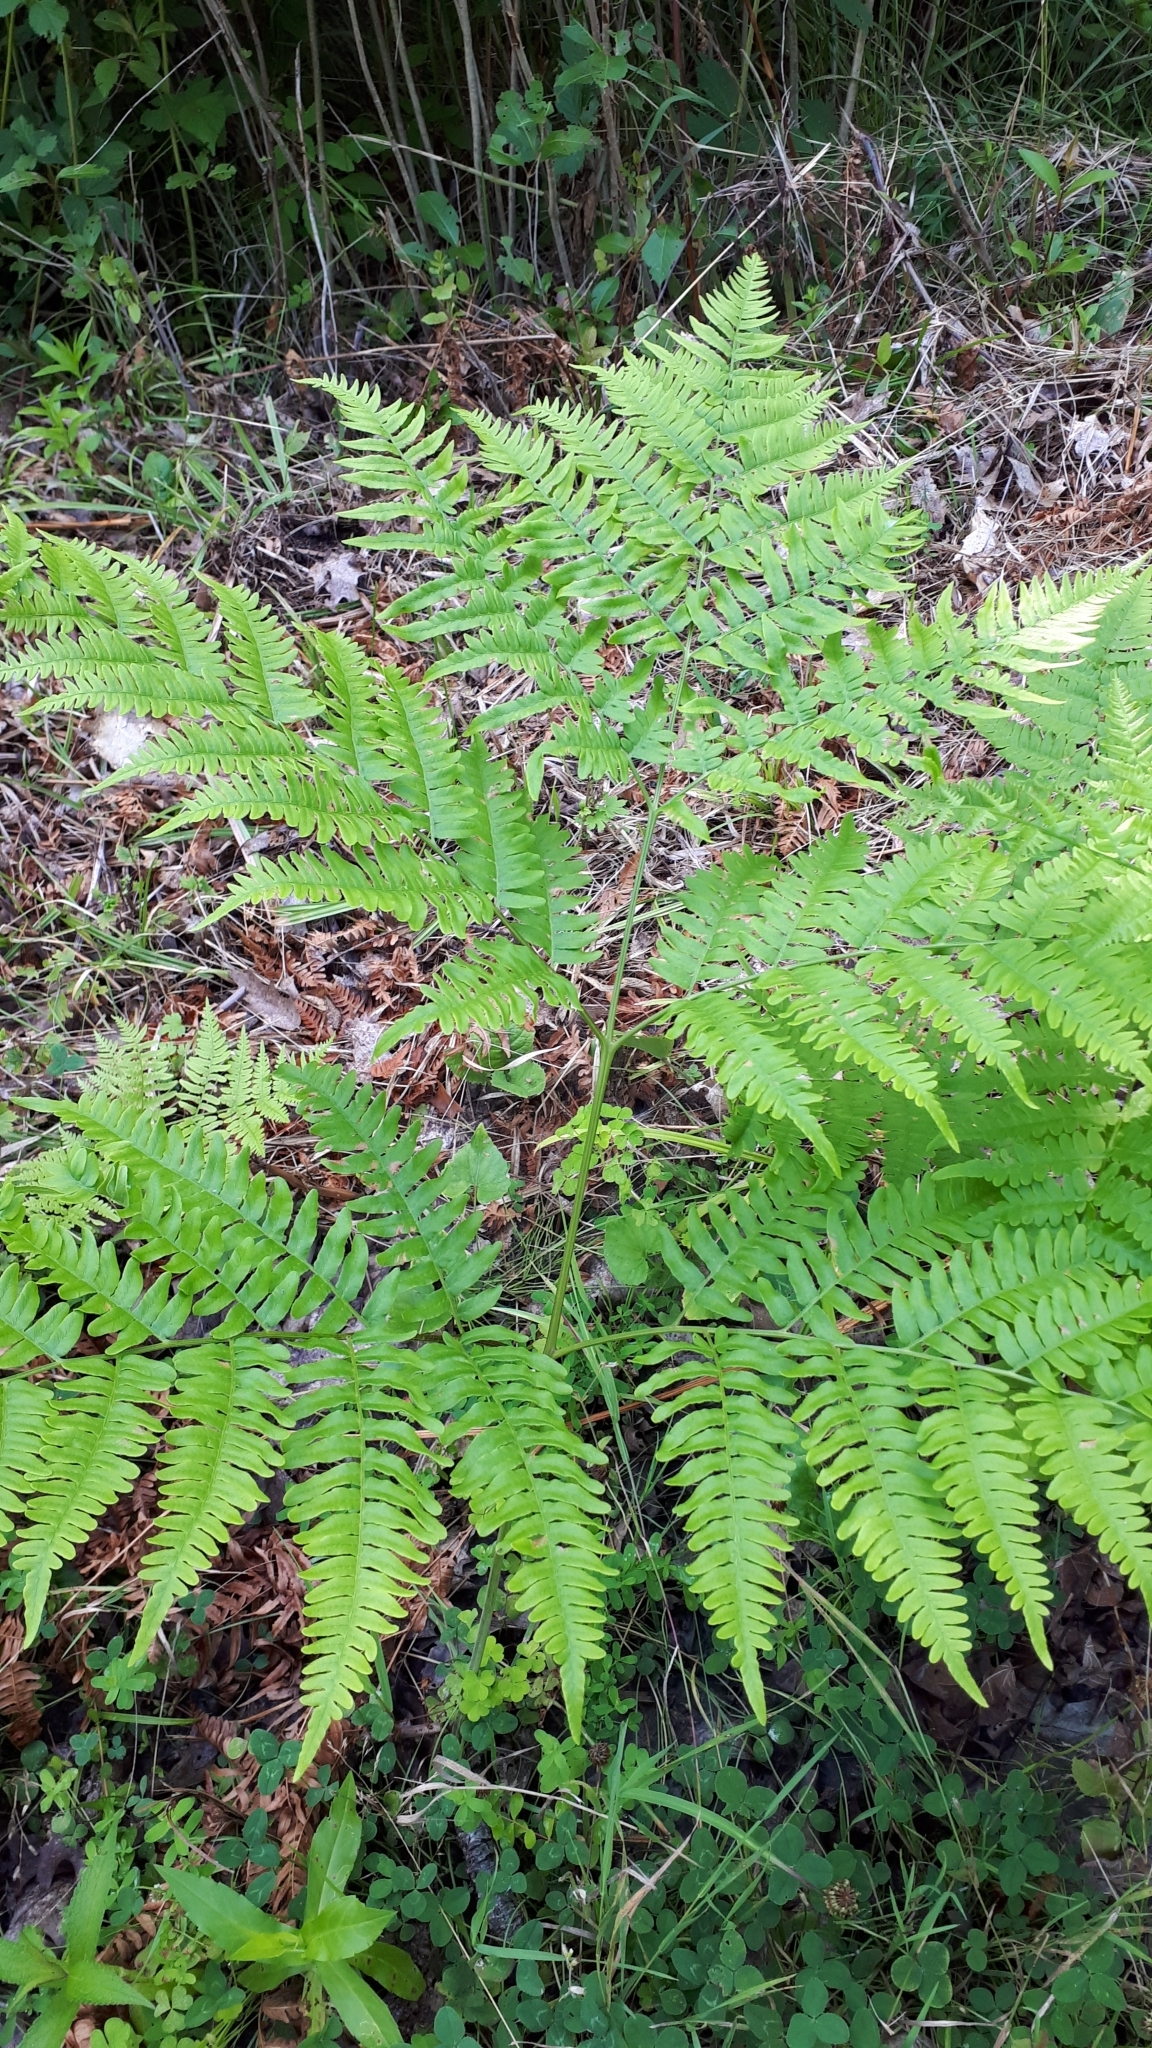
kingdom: Plantae
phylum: Tracheophyta
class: Polypodiopsida
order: Polypodiales
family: Dennstaedtiaceae
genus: Pteridium
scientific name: Pteridium aquilinum
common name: Bracken
